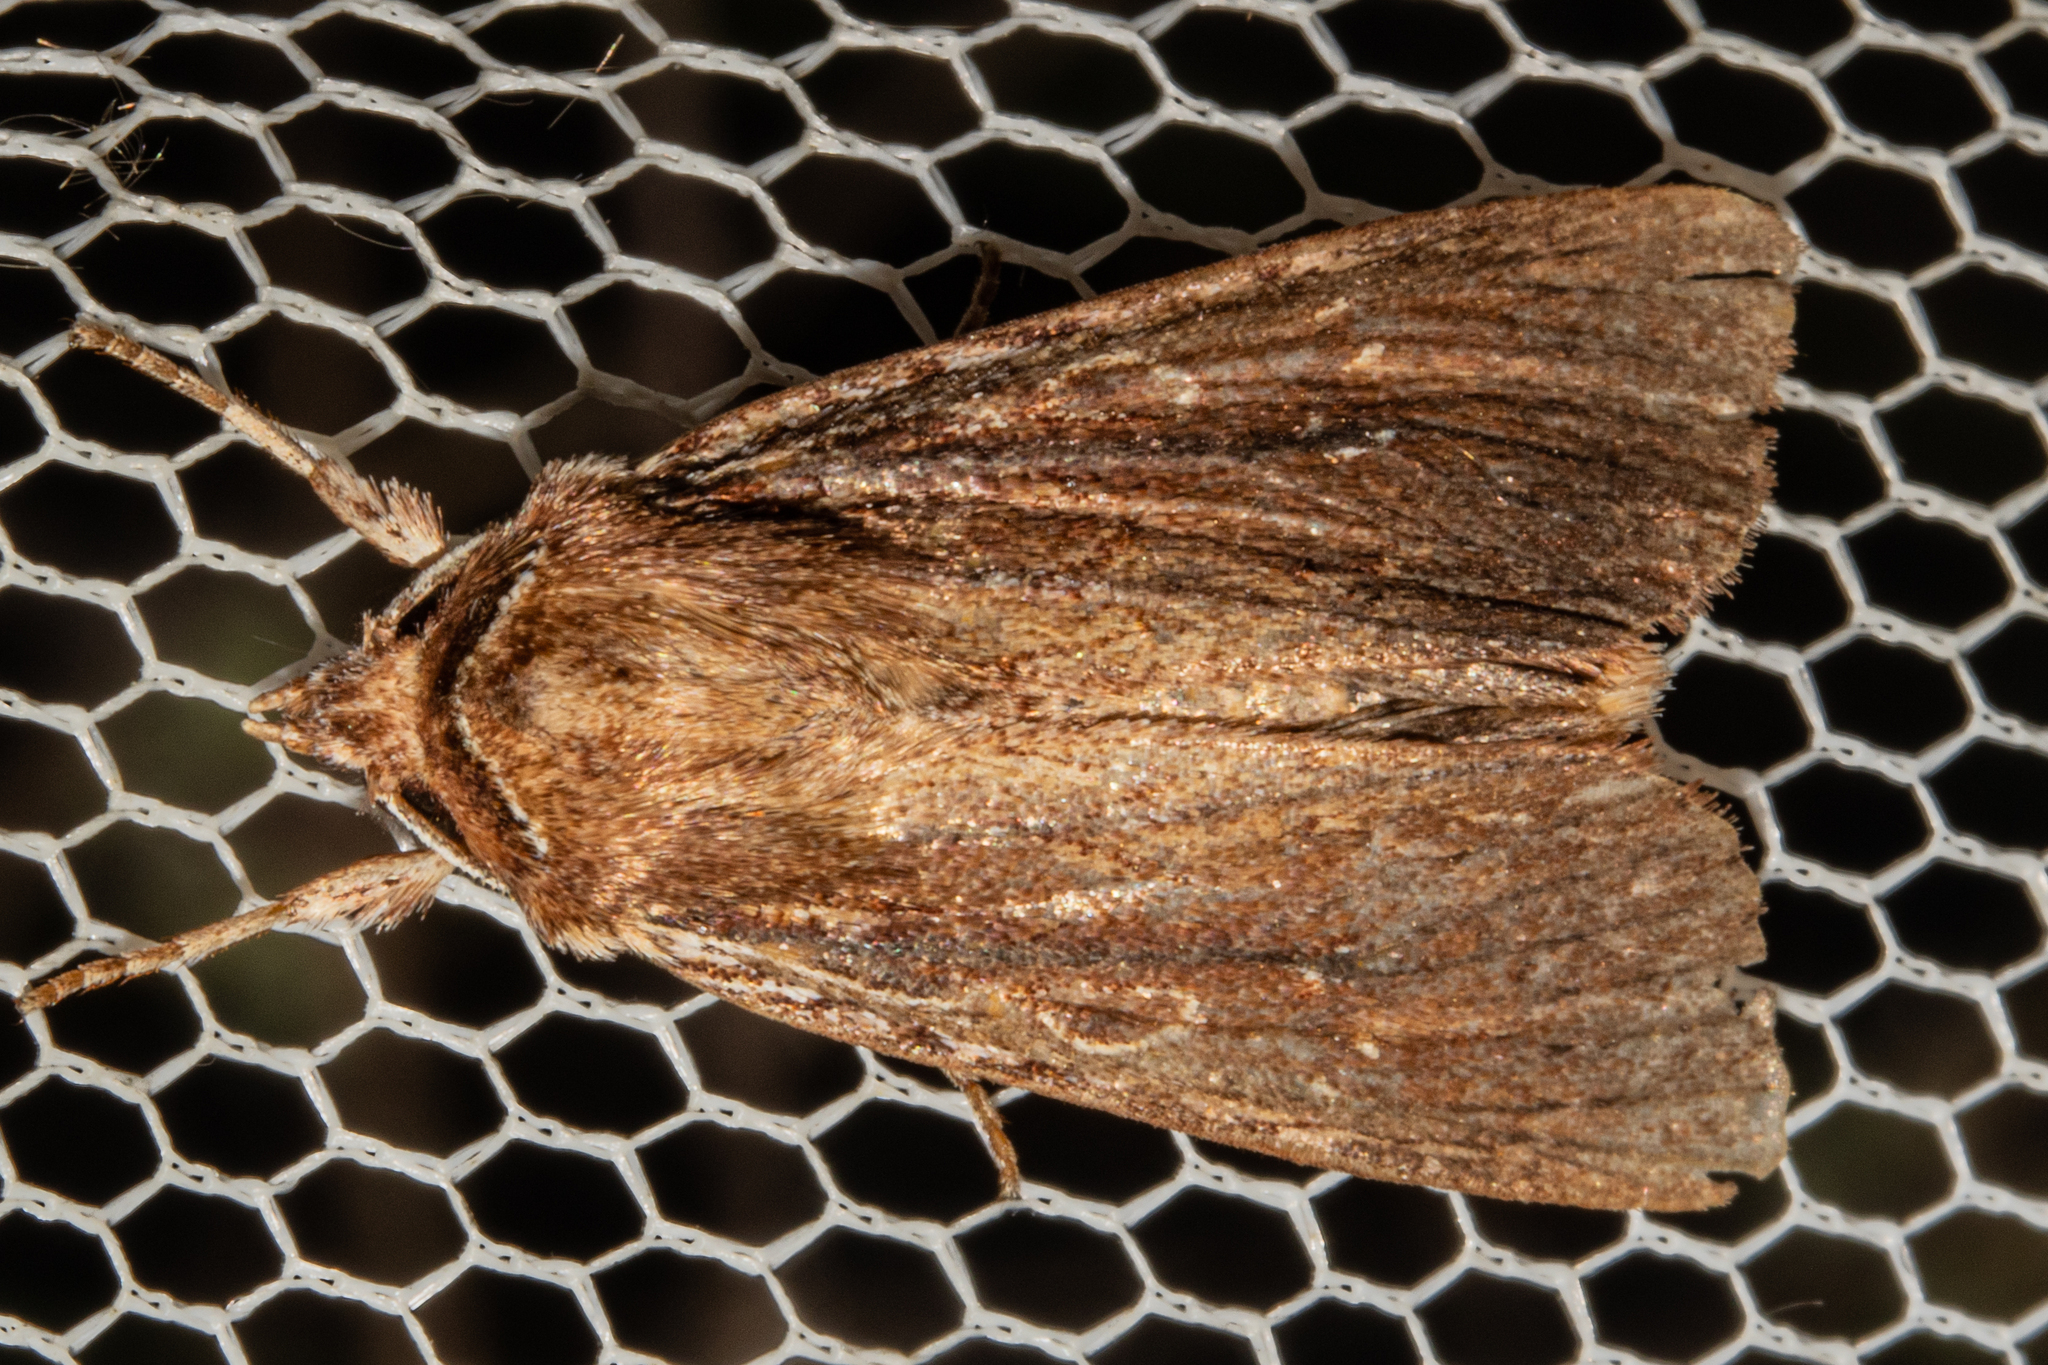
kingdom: Animalia
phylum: Arthropoda
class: Insecta
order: Lepidoptera
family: Noctuidae
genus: Ichneutica
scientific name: Ichneutica
